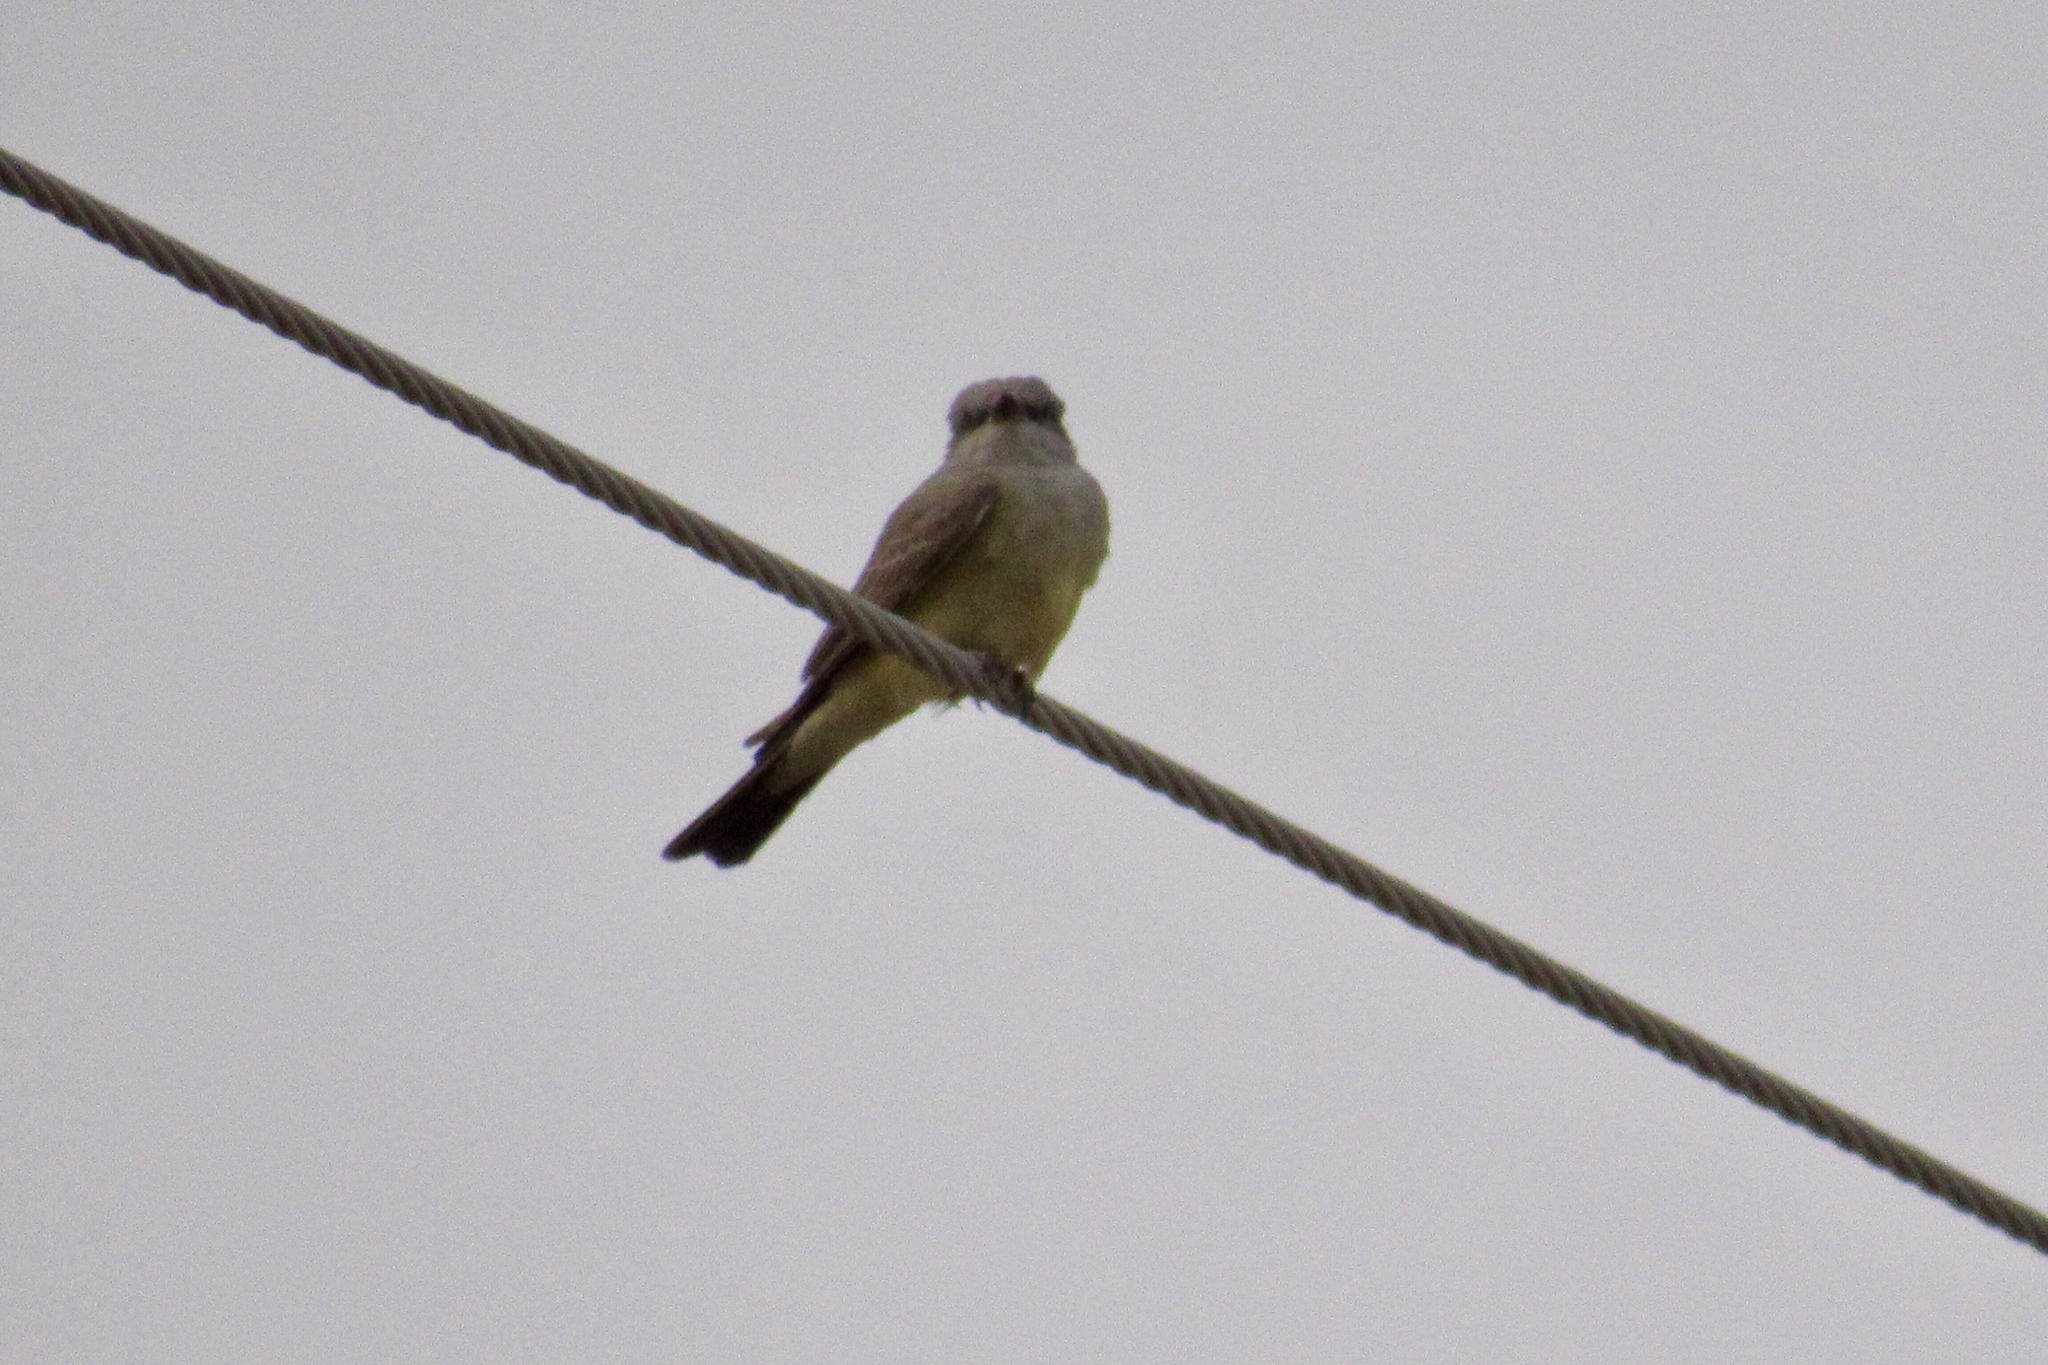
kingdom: Animalia
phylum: Chordata
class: Aves
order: Passeriformes
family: Tyrannidae
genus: Tyrannus
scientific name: Tyrannus verticalis
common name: Western kingbird
